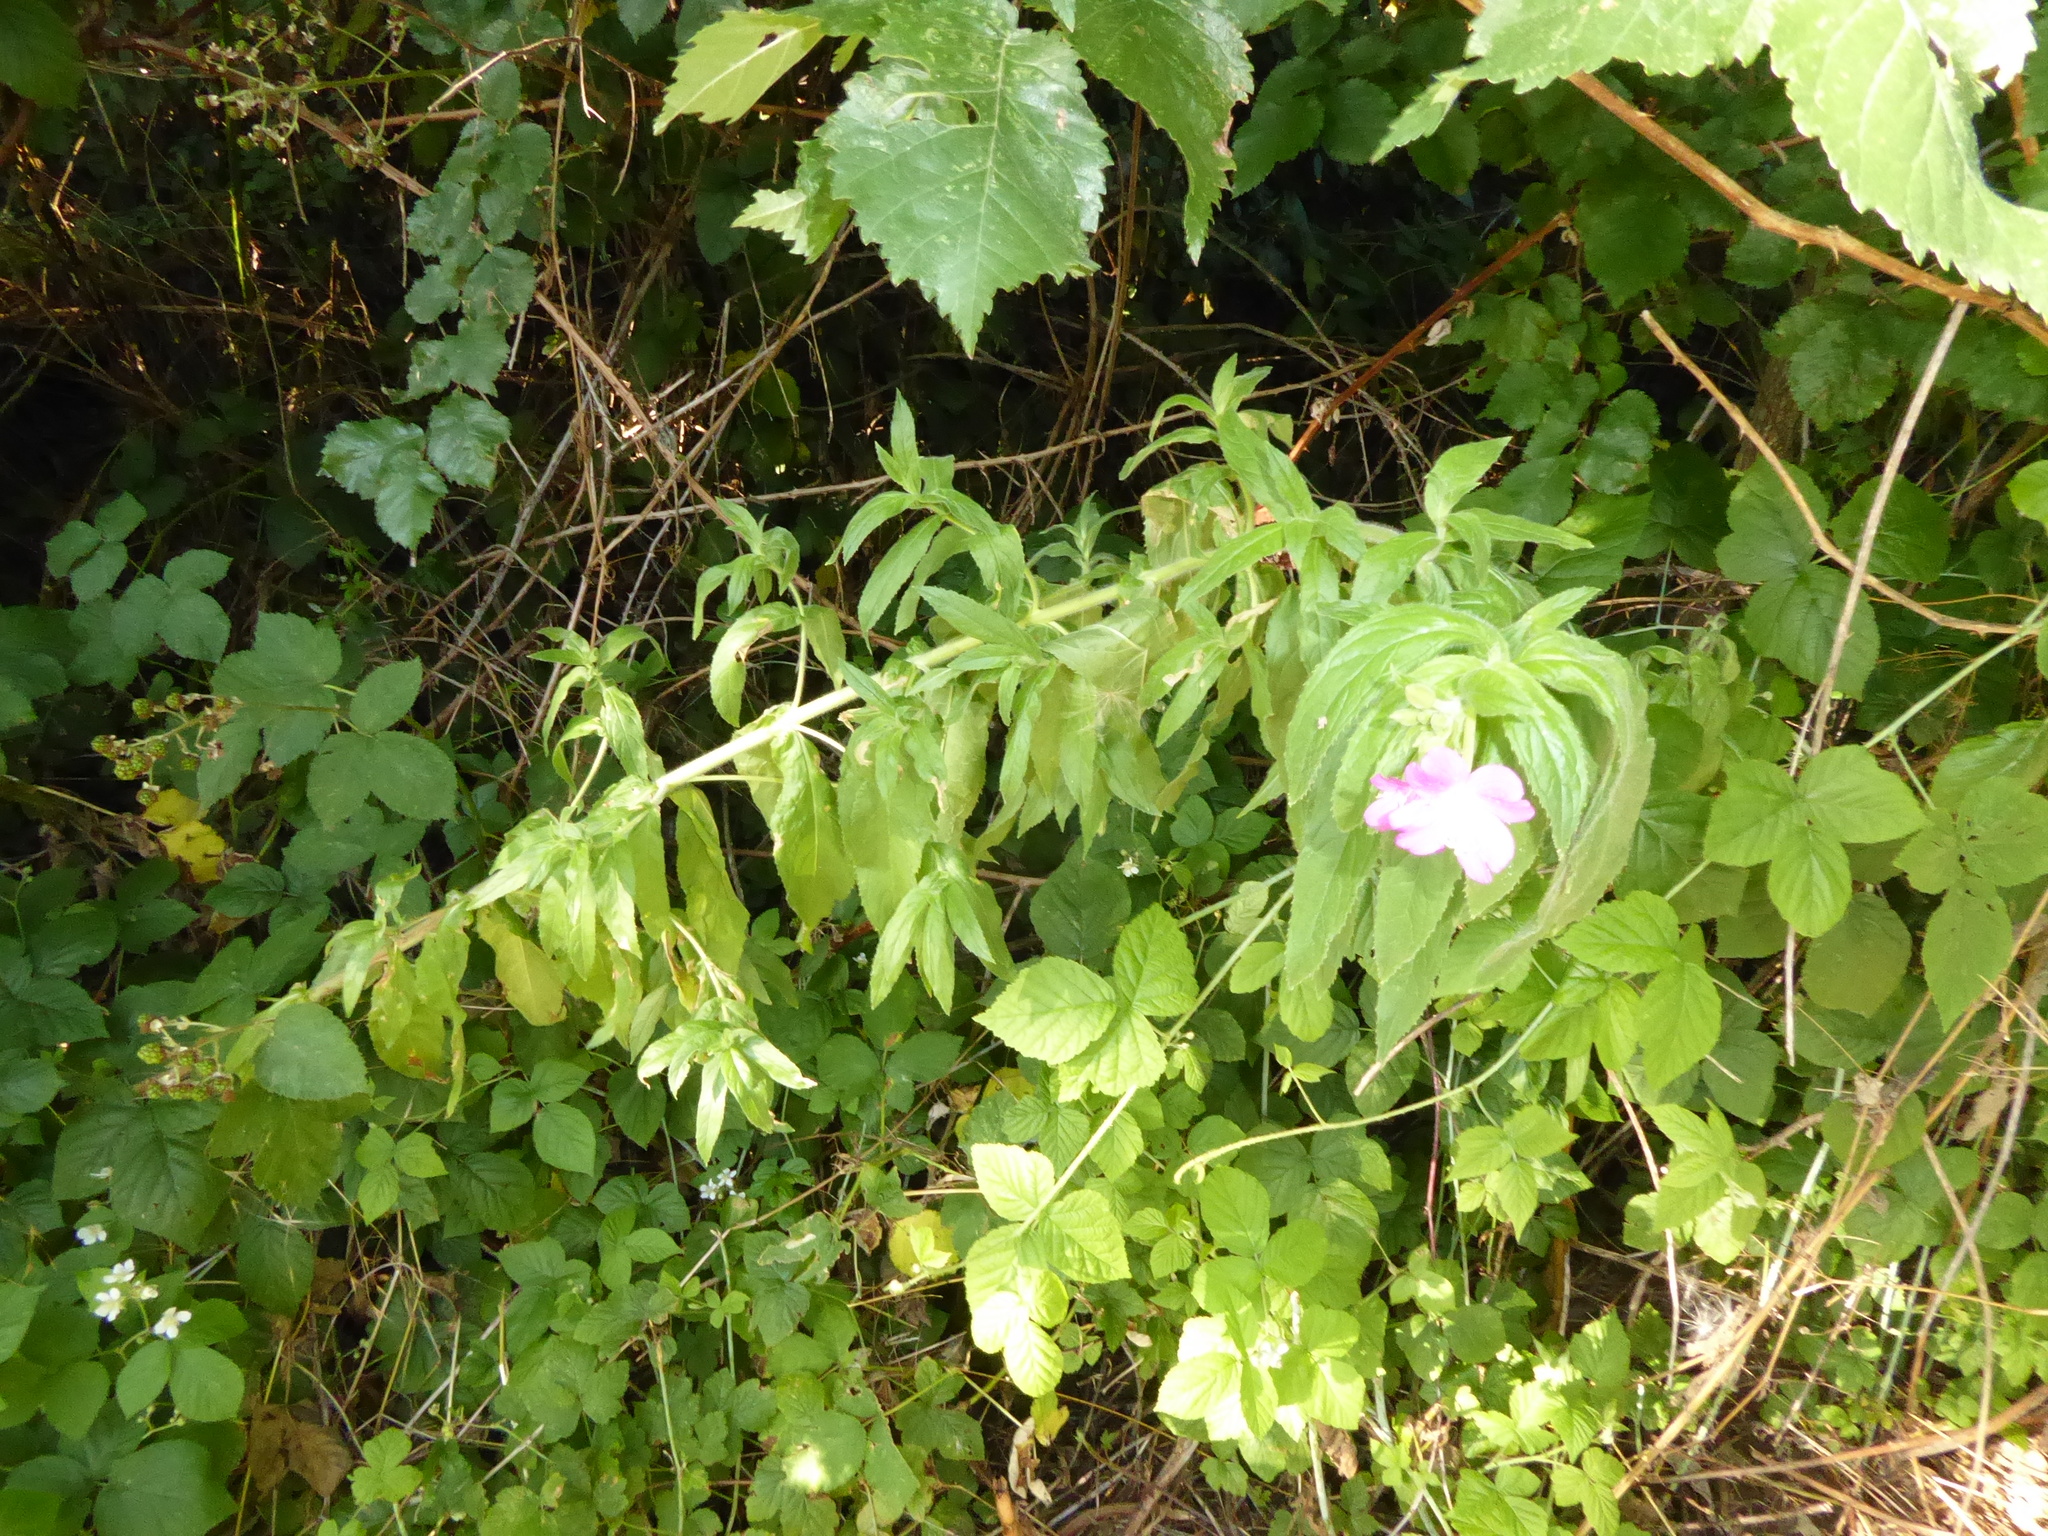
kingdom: Plantae
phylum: Tracheophyta
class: Magnoliopsida
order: Myrtales
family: Onagraceae
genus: Epilobium
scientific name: Epilobium hirsutum
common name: Great willowherb
